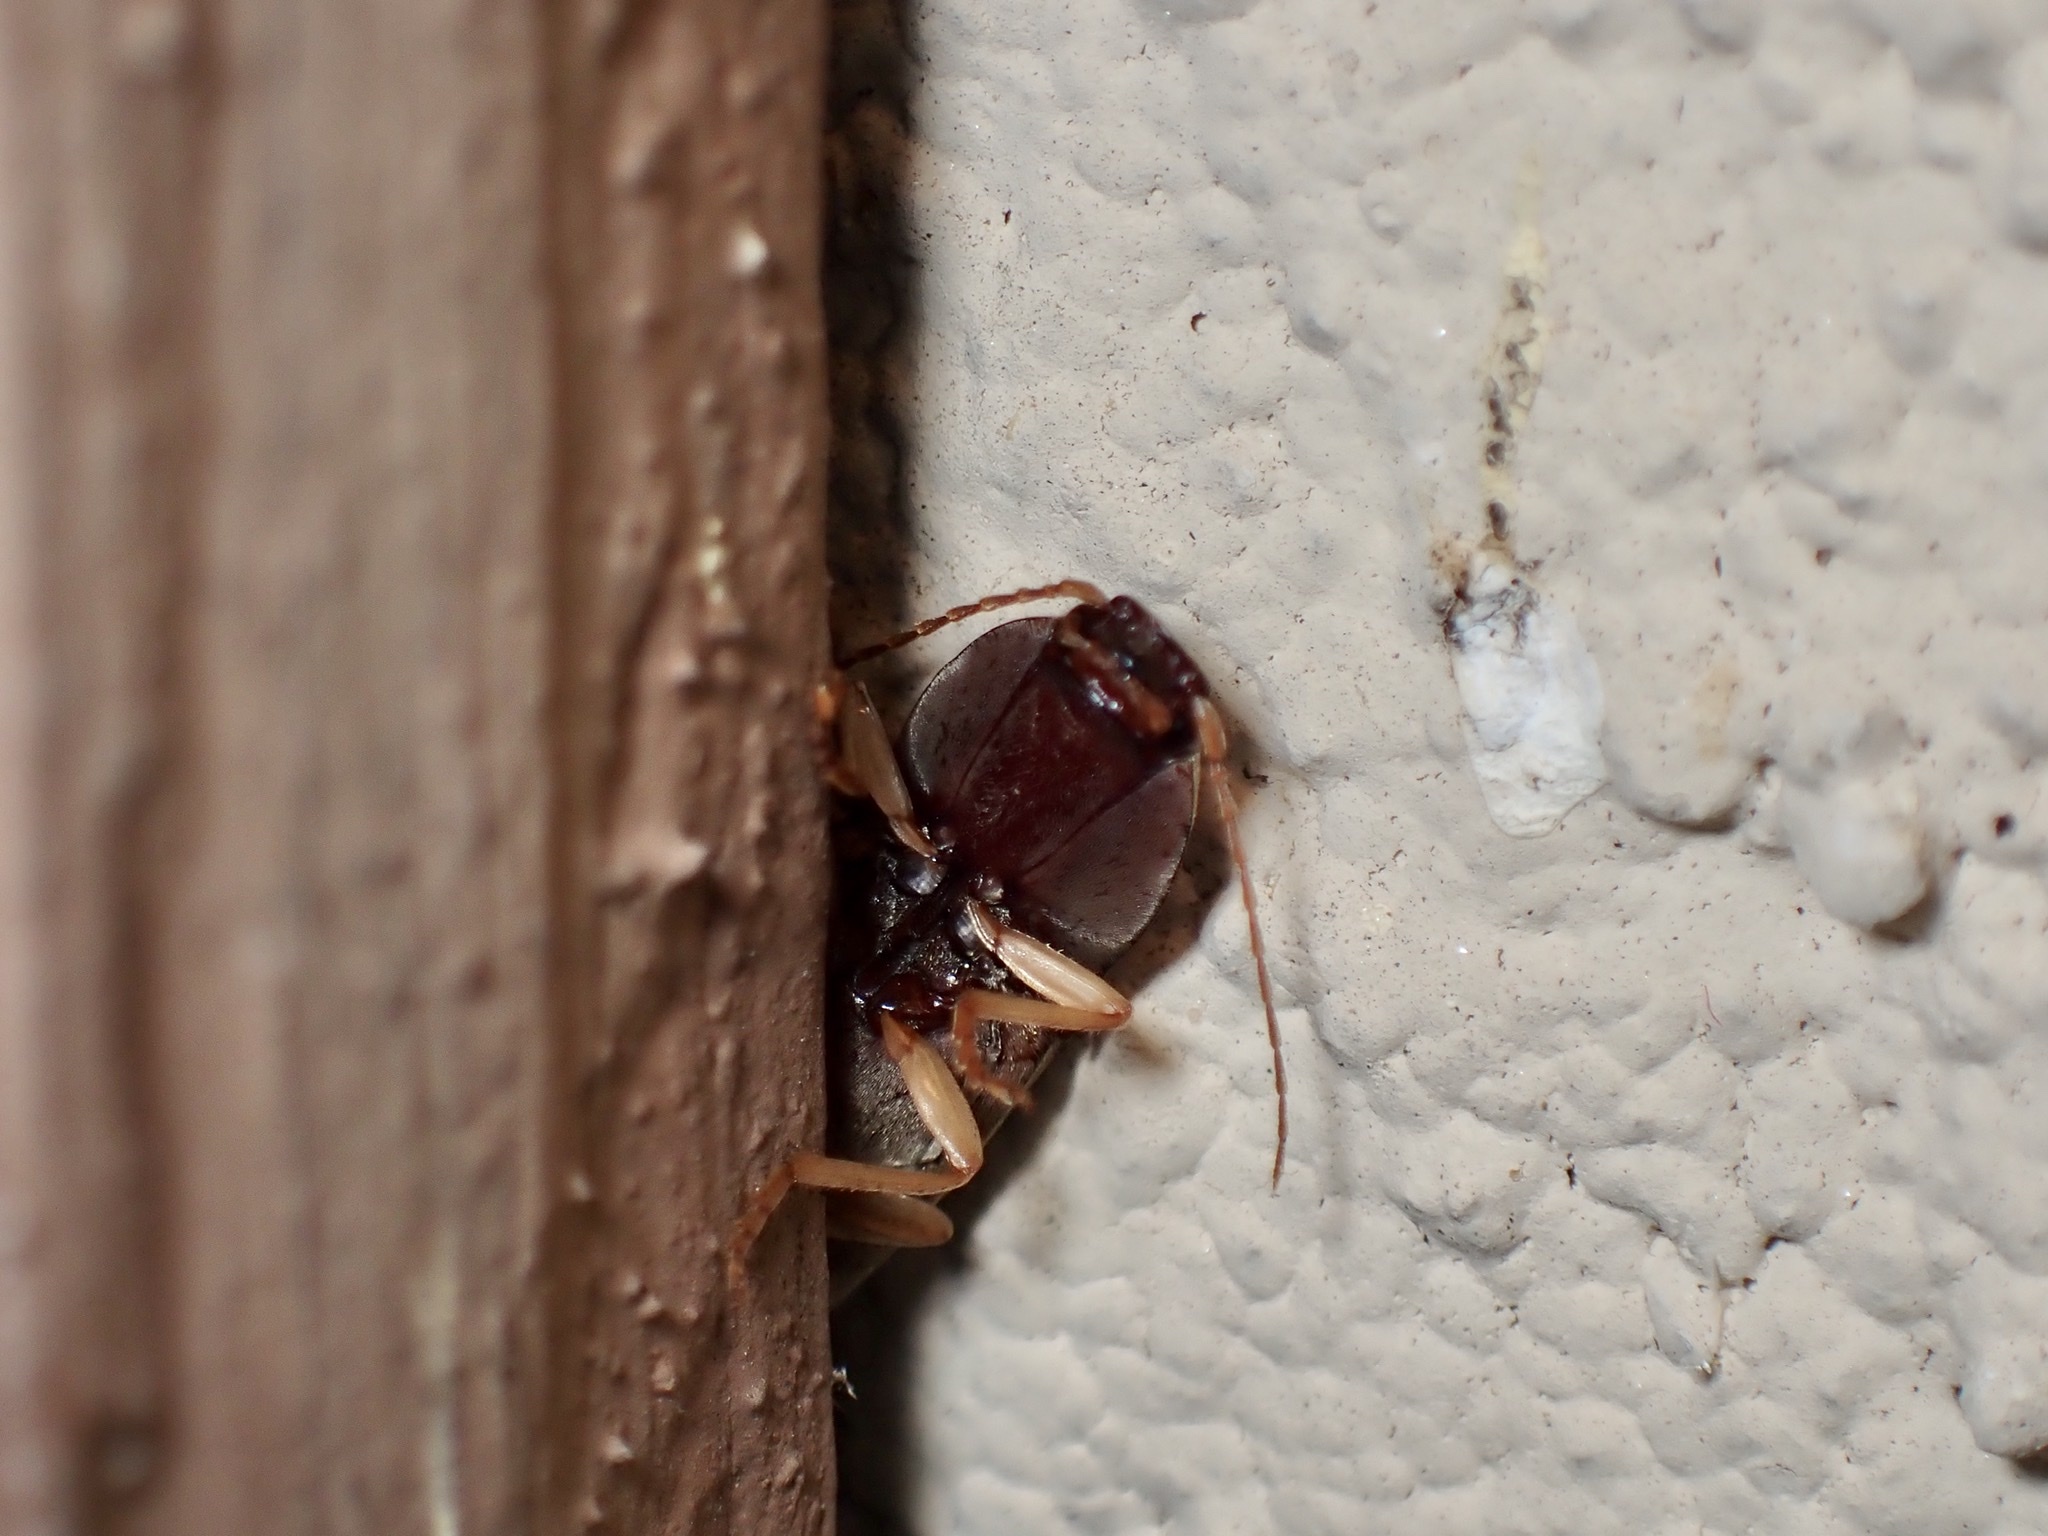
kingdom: Animalia
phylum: Arthropoda
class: Insecta
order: Coleoptera
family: Elateridae
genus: Monocrepidius
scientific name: Monocrepidius lividus
